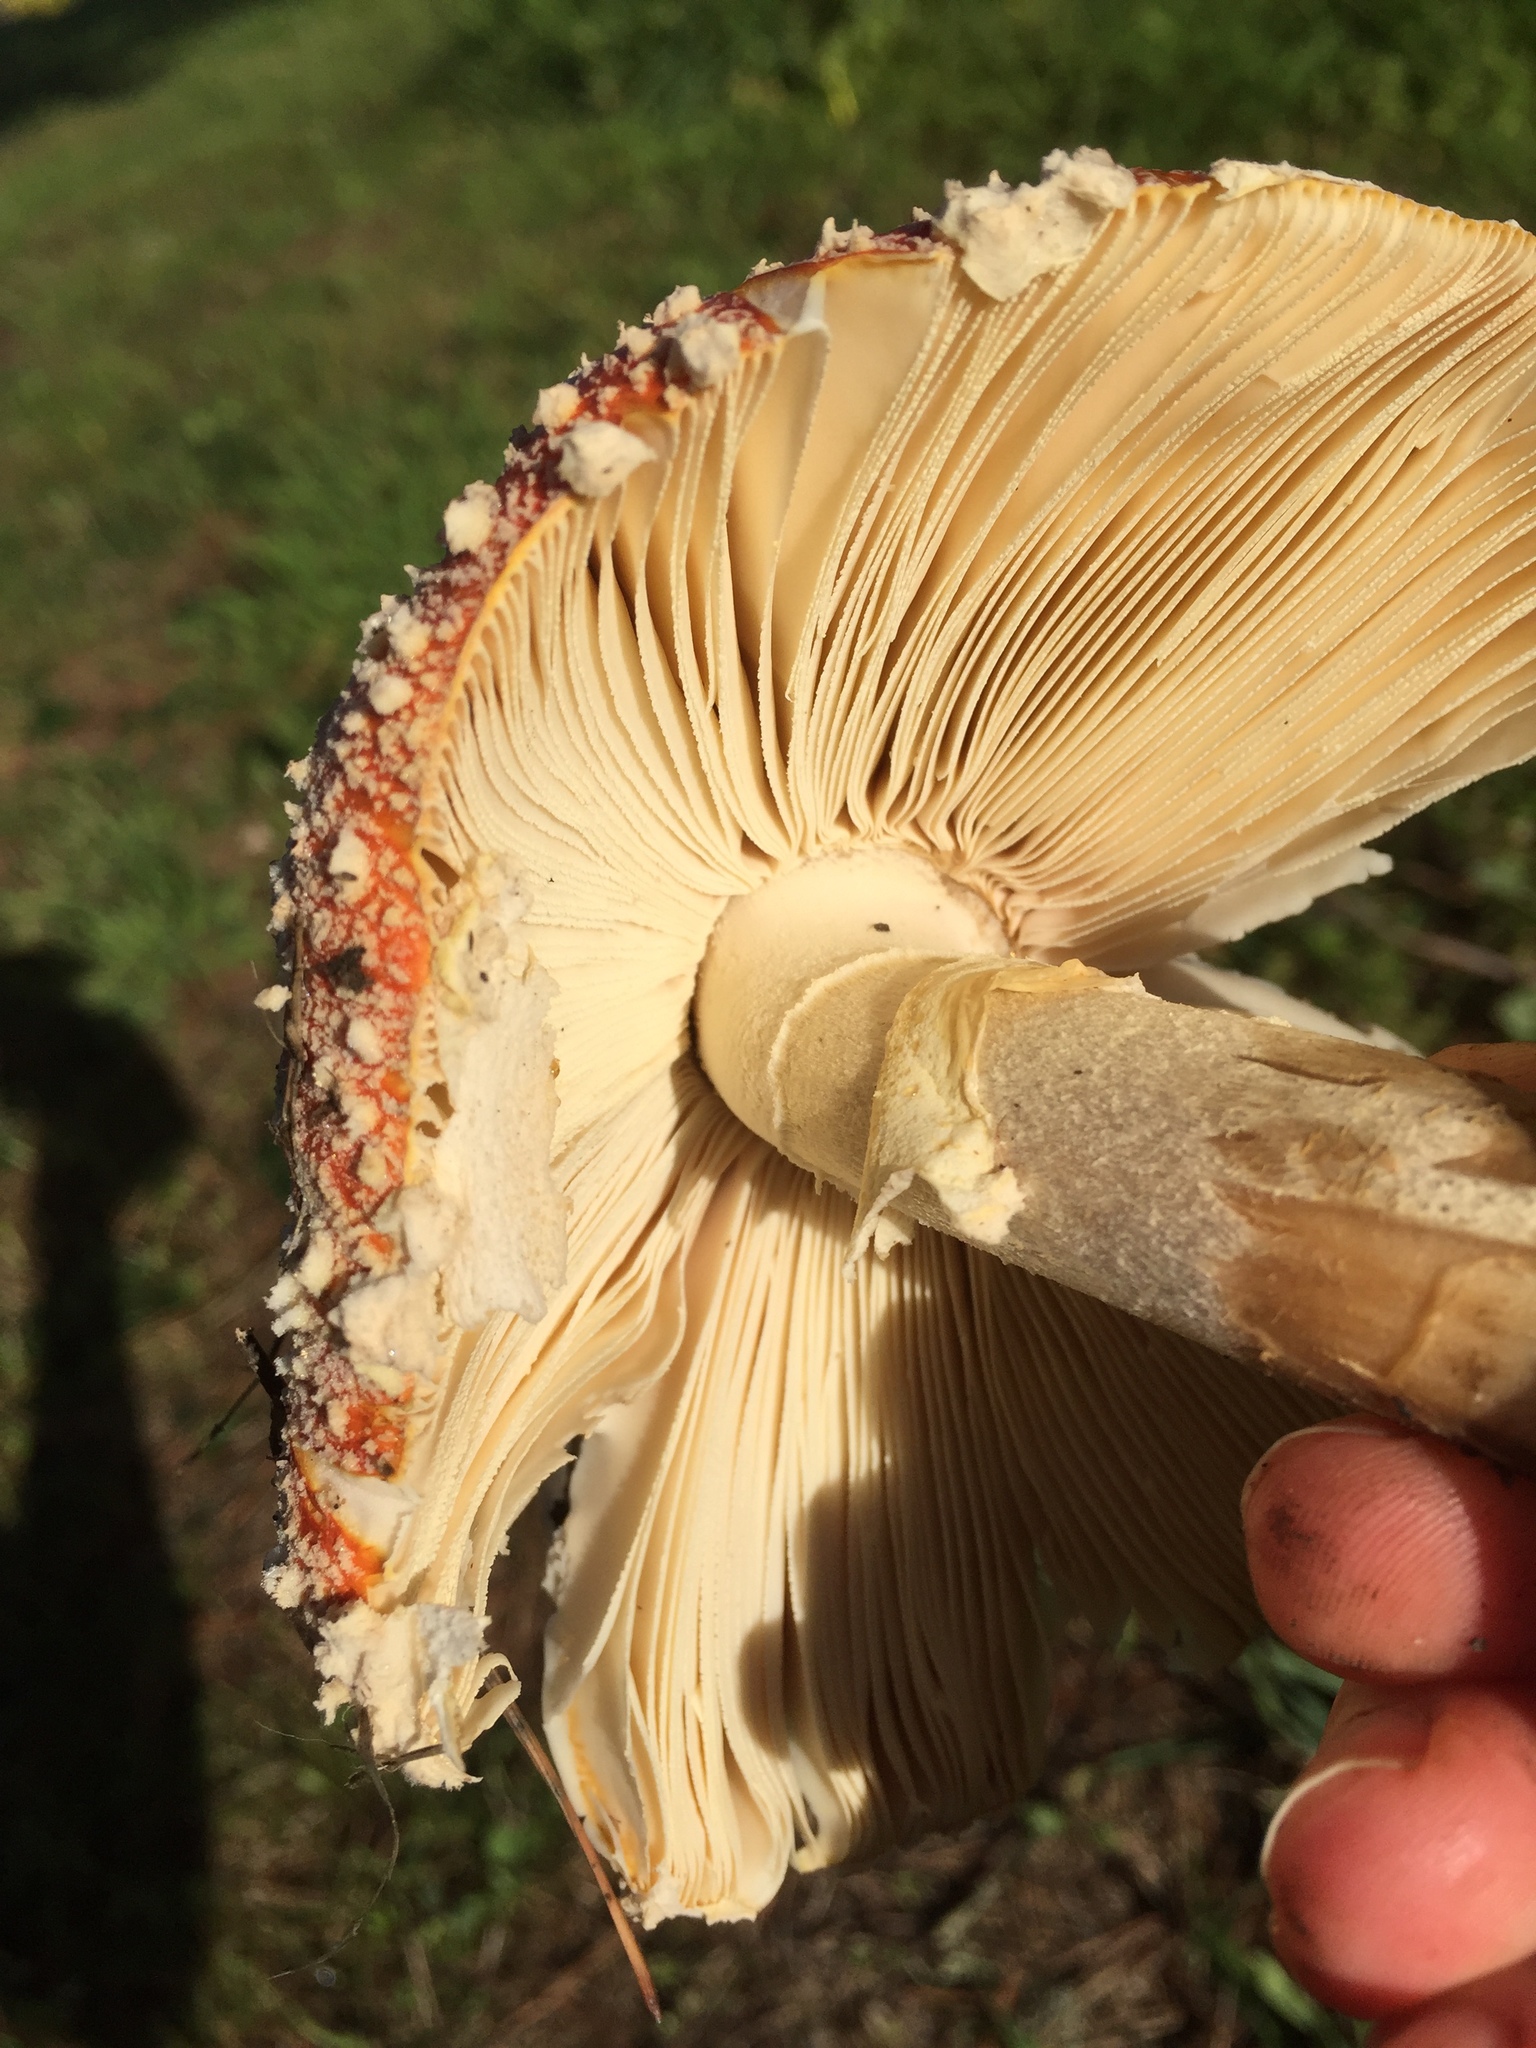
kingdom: Fungi
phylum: Basidiomycota
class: Agaricomycetes
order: Agaricales
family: Amanitaceae
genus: Amanita
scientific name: Amanita muscaria
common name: Fly agaric
